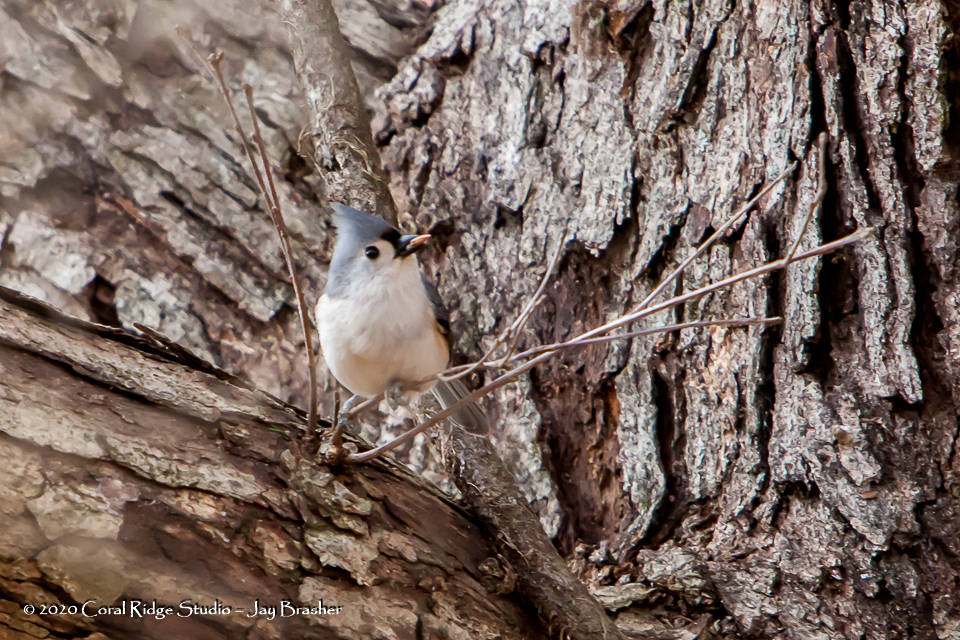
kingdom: Animalia
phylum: Chordata
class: Aves
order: Passeriformes
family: Paridae
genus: Baeolophus
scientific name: Baeolophus bicolor
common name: Tufted titmouse
